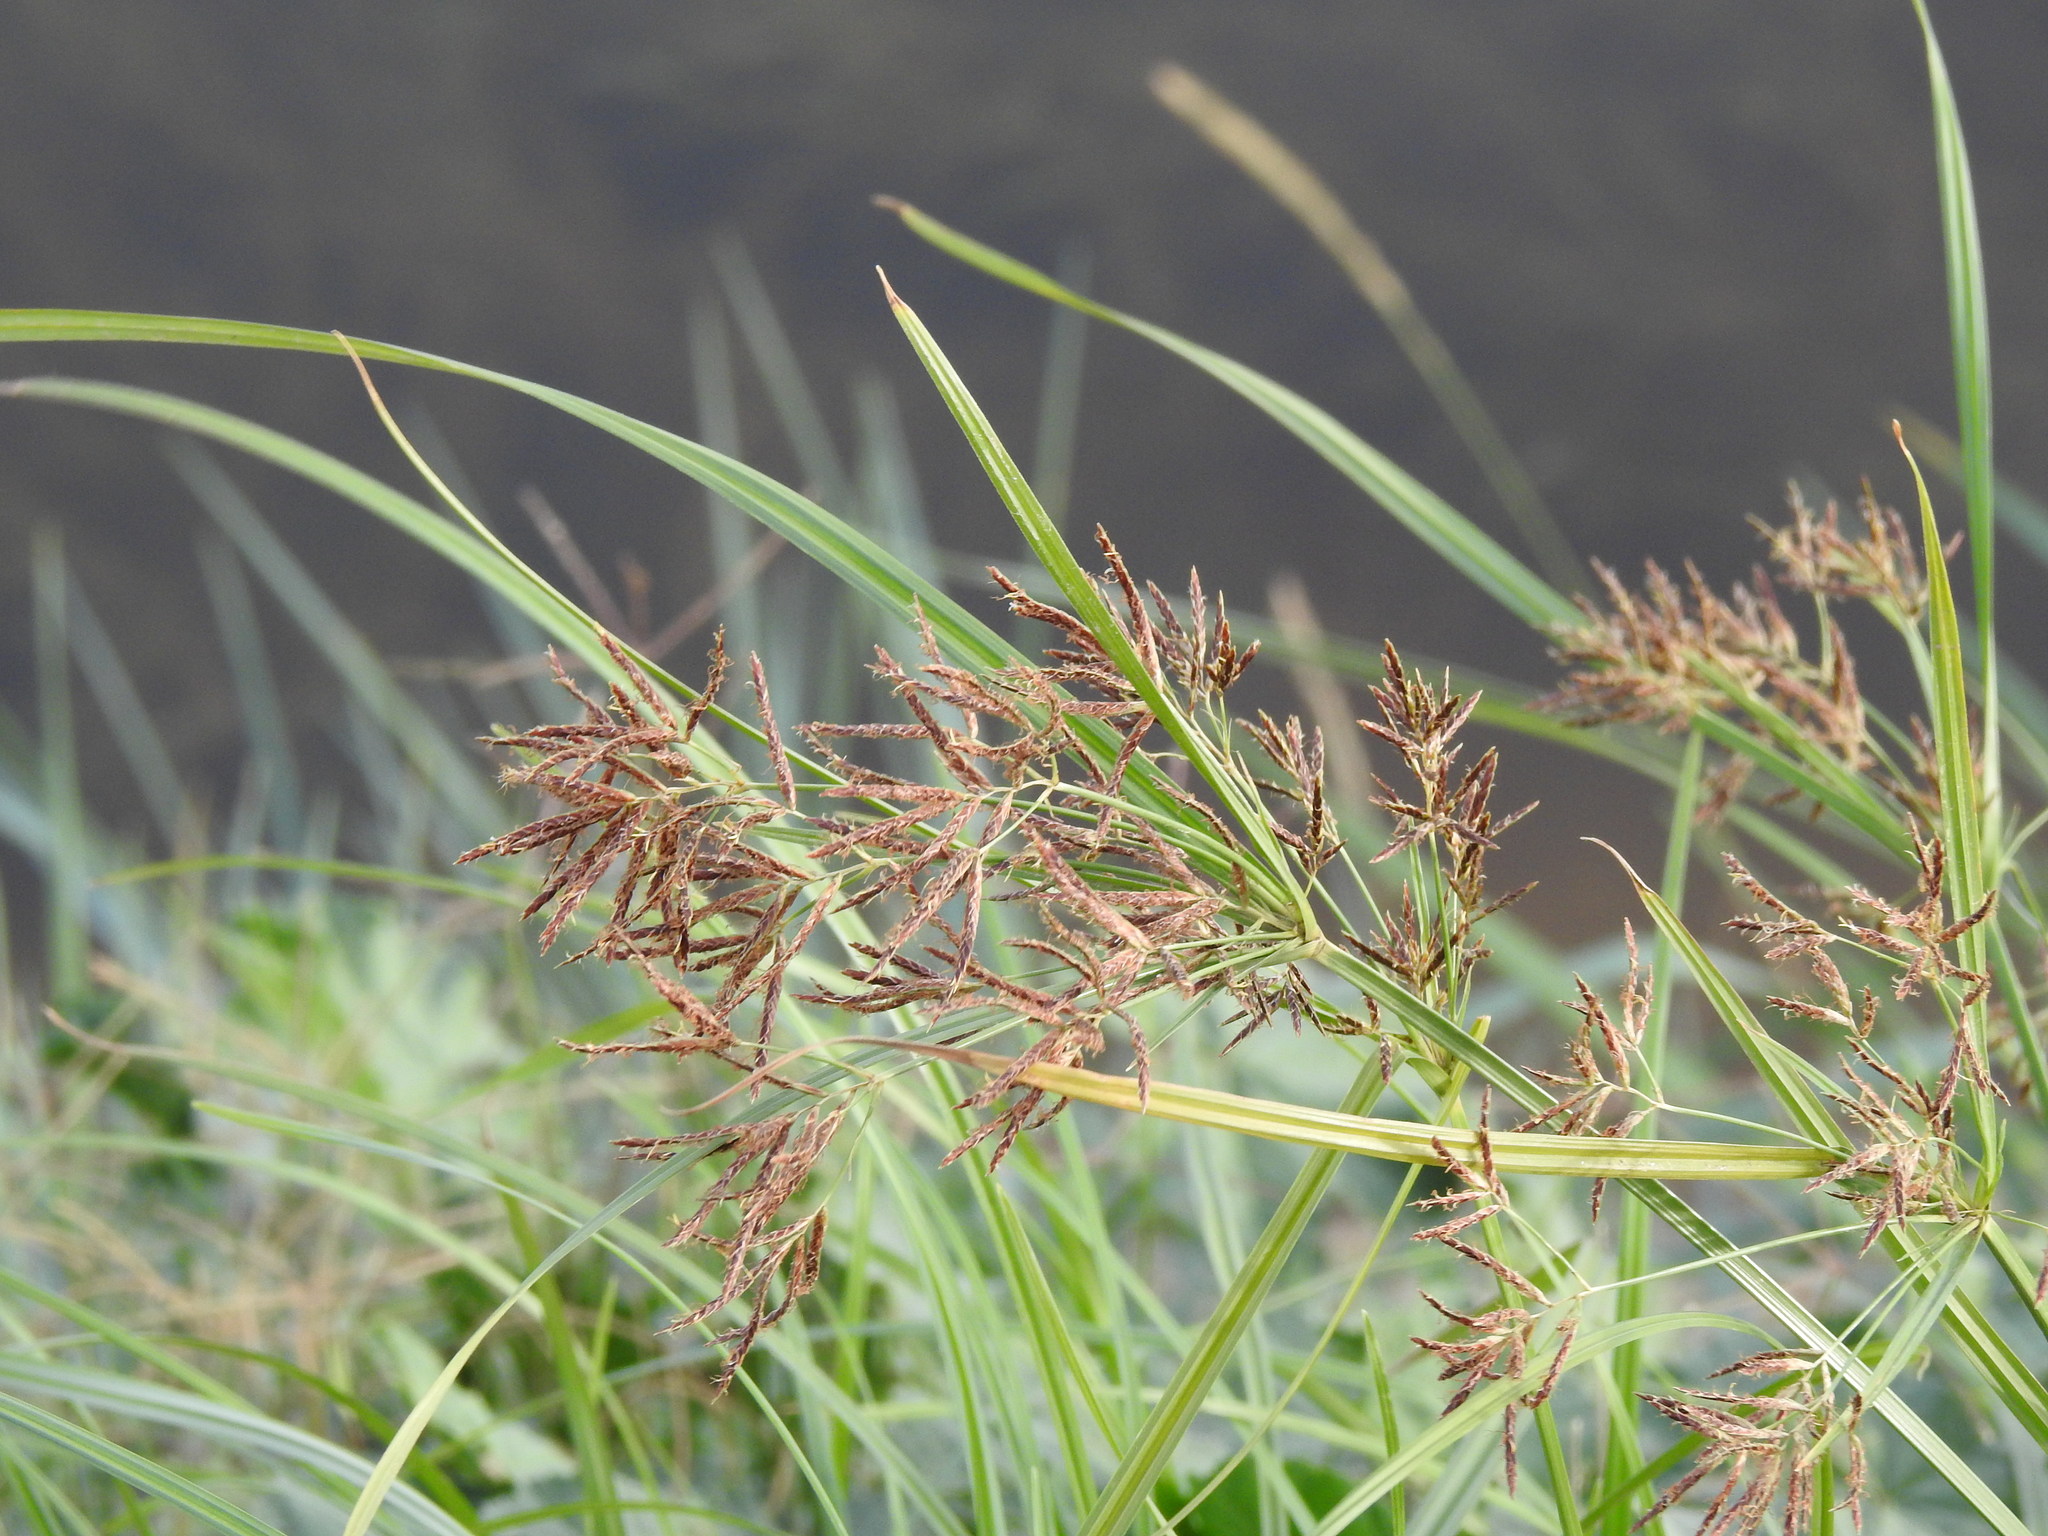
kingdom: Plantae
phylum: Tracheophyta
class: Liliopsida
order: Poales
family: Cyperaceae
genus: Cyperus
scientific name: Cyperus longus
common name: Galingale
